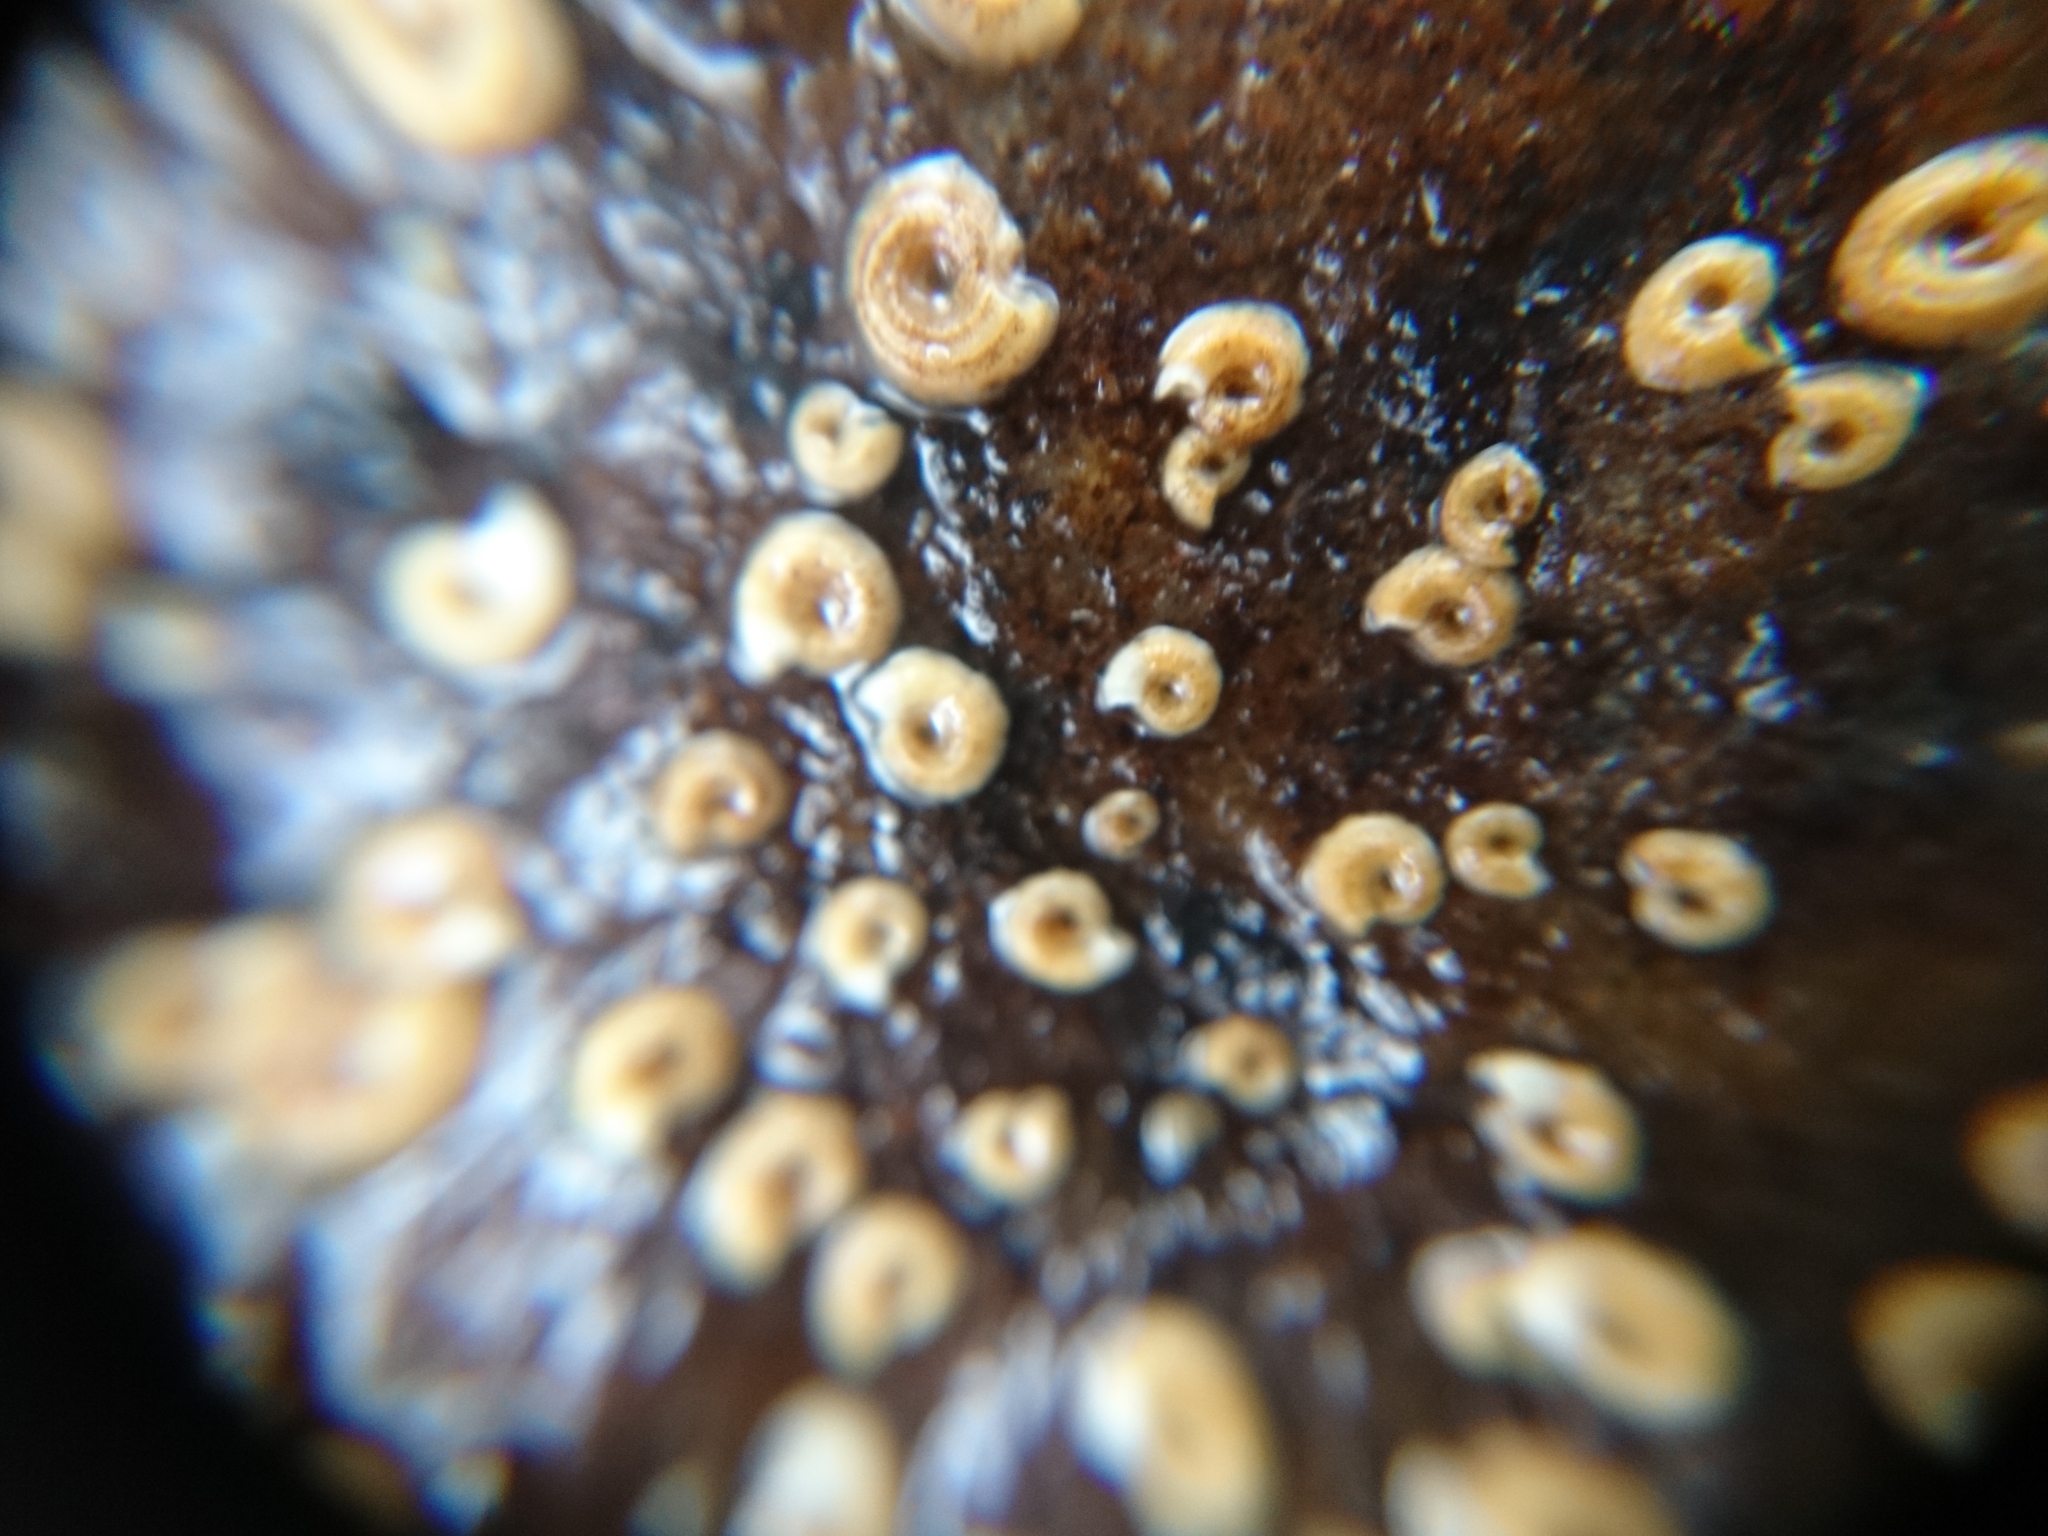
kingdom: Animalia
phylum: Annelida
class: Polychaeta
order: Sabellida
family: Serpulidae
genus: Spirorbis
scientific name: Spirorbis spirorbis
